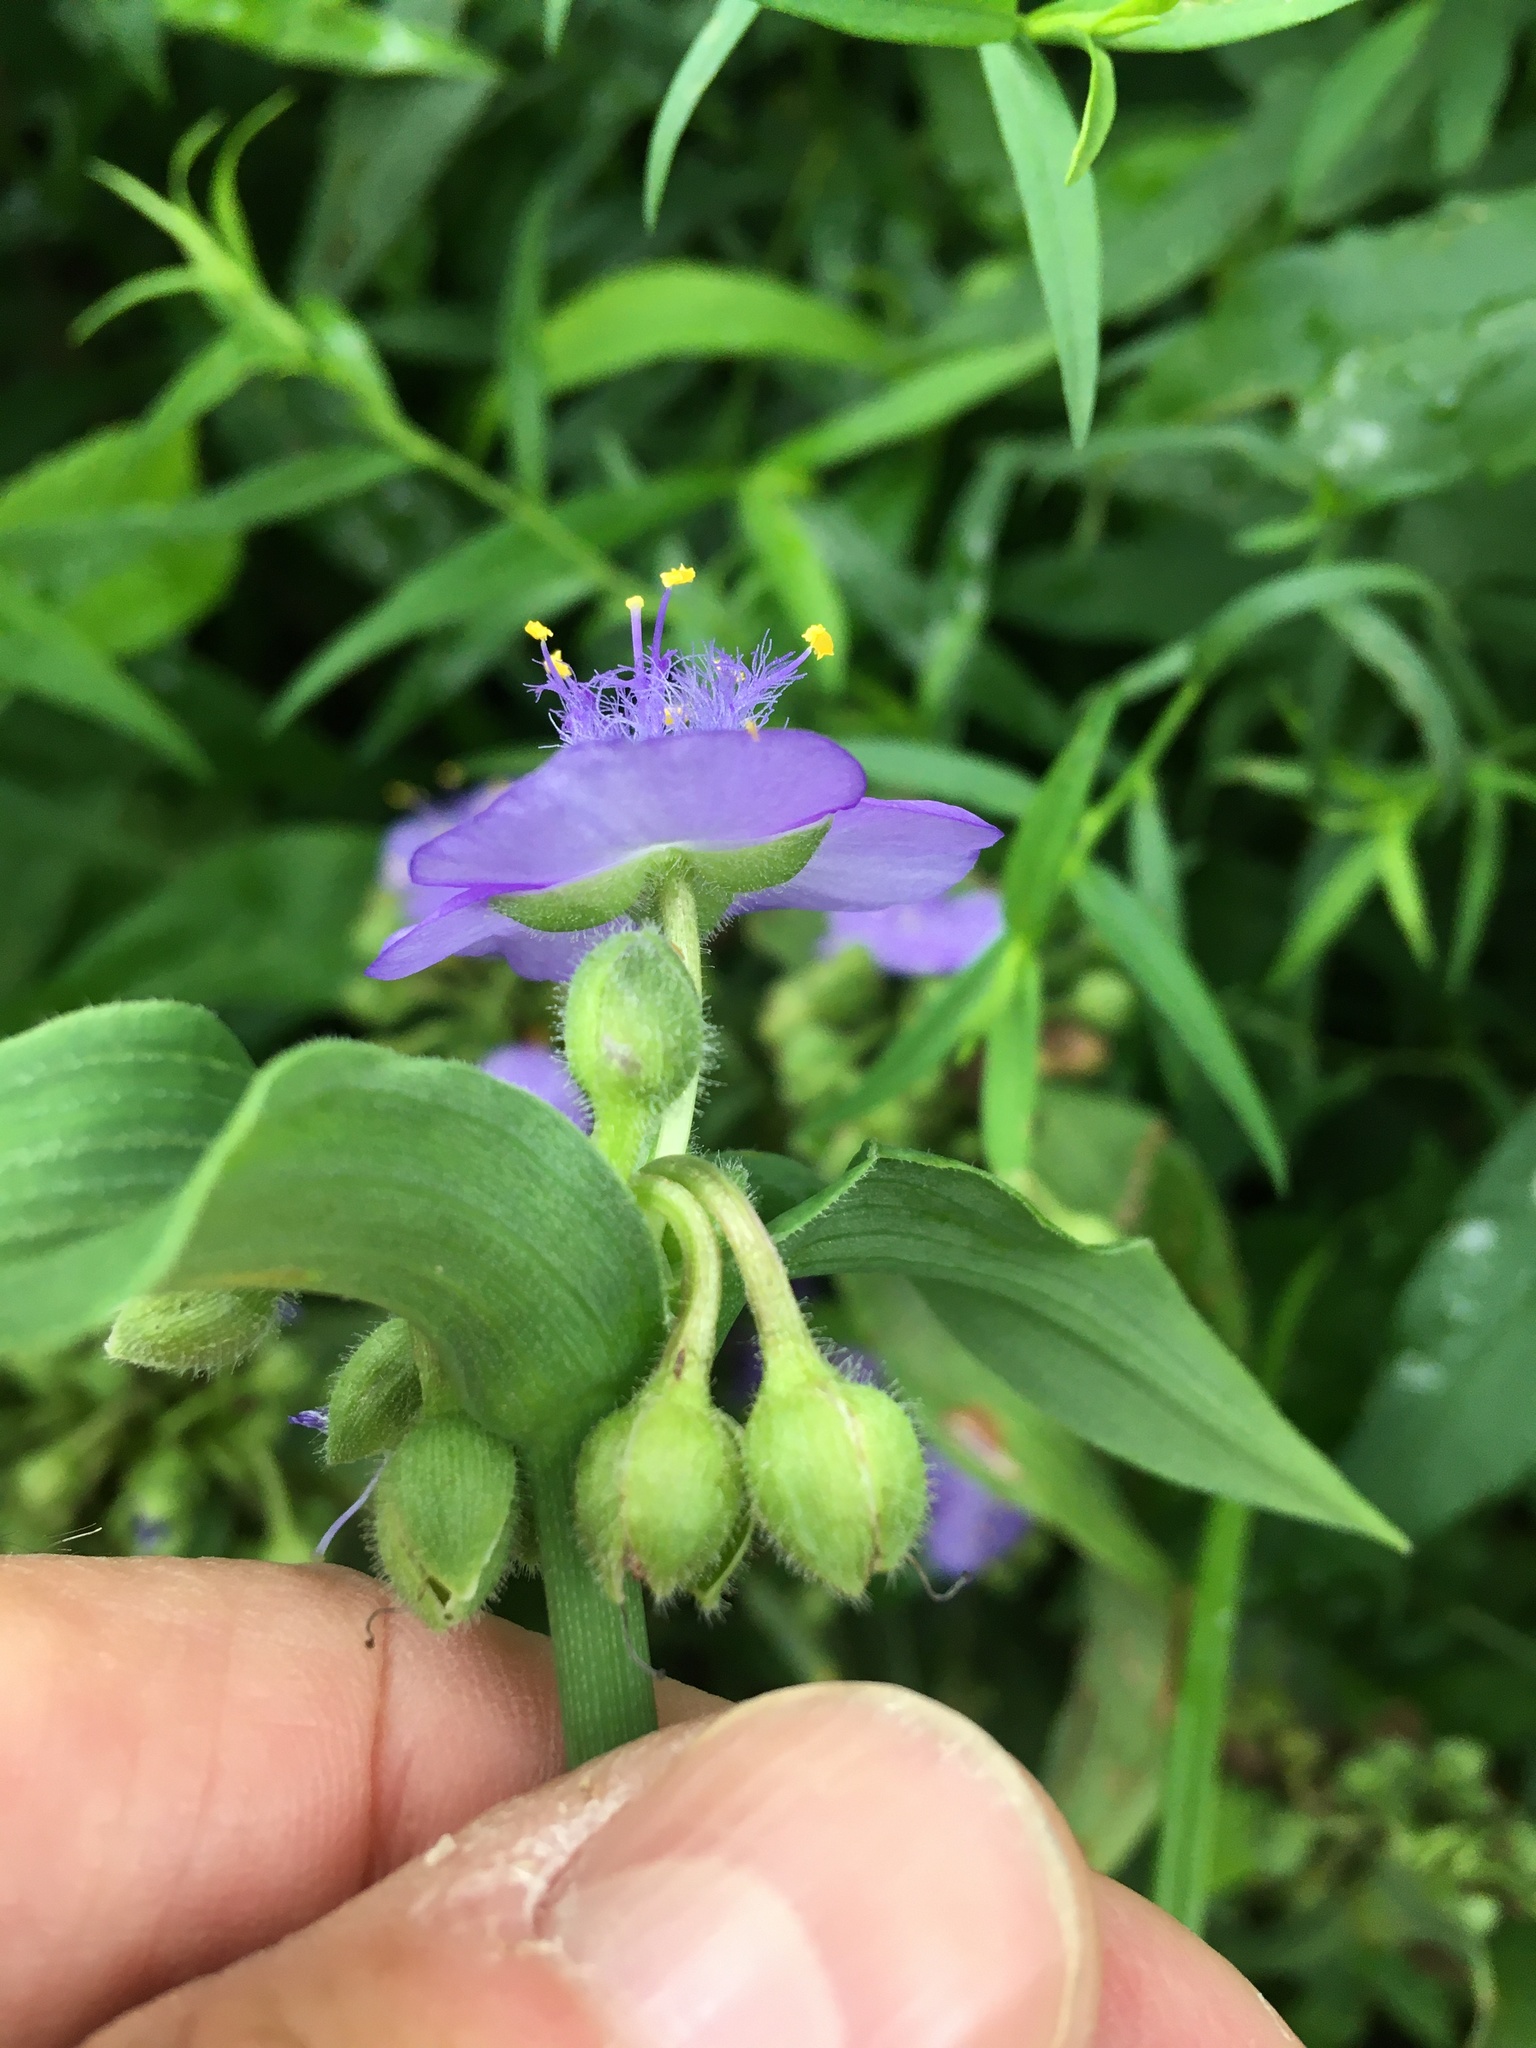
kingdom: Plantae
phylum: Tracheophyta
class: Liliopsida
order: Commelinales
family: Commelinaceae
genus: Tradescantia
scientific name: Tradescantia virginiana
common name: Spiderwort
